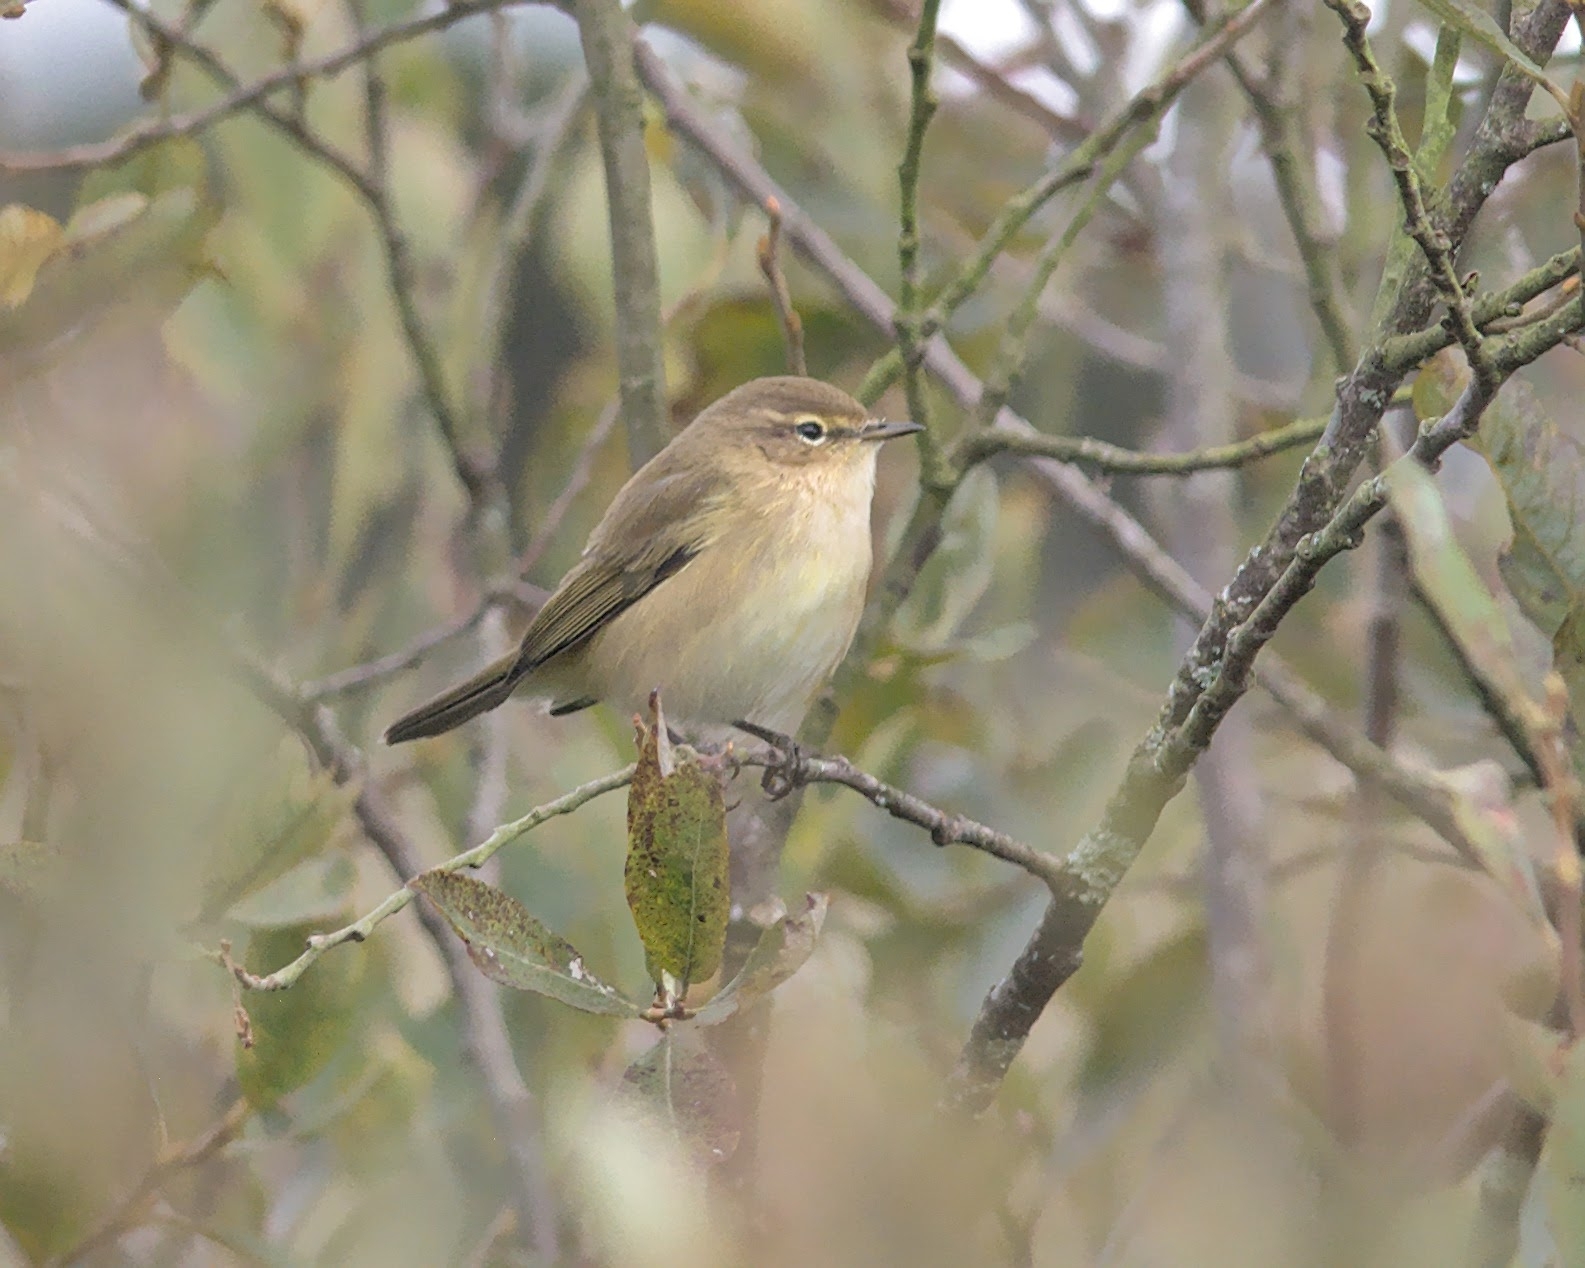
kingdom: Animalia
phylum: Chordata
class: Aves
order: Passeriformes
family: Phylloscopidae
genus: Phylloscopus
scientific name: Phylloscopus collybita
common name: Common chiffchaff
